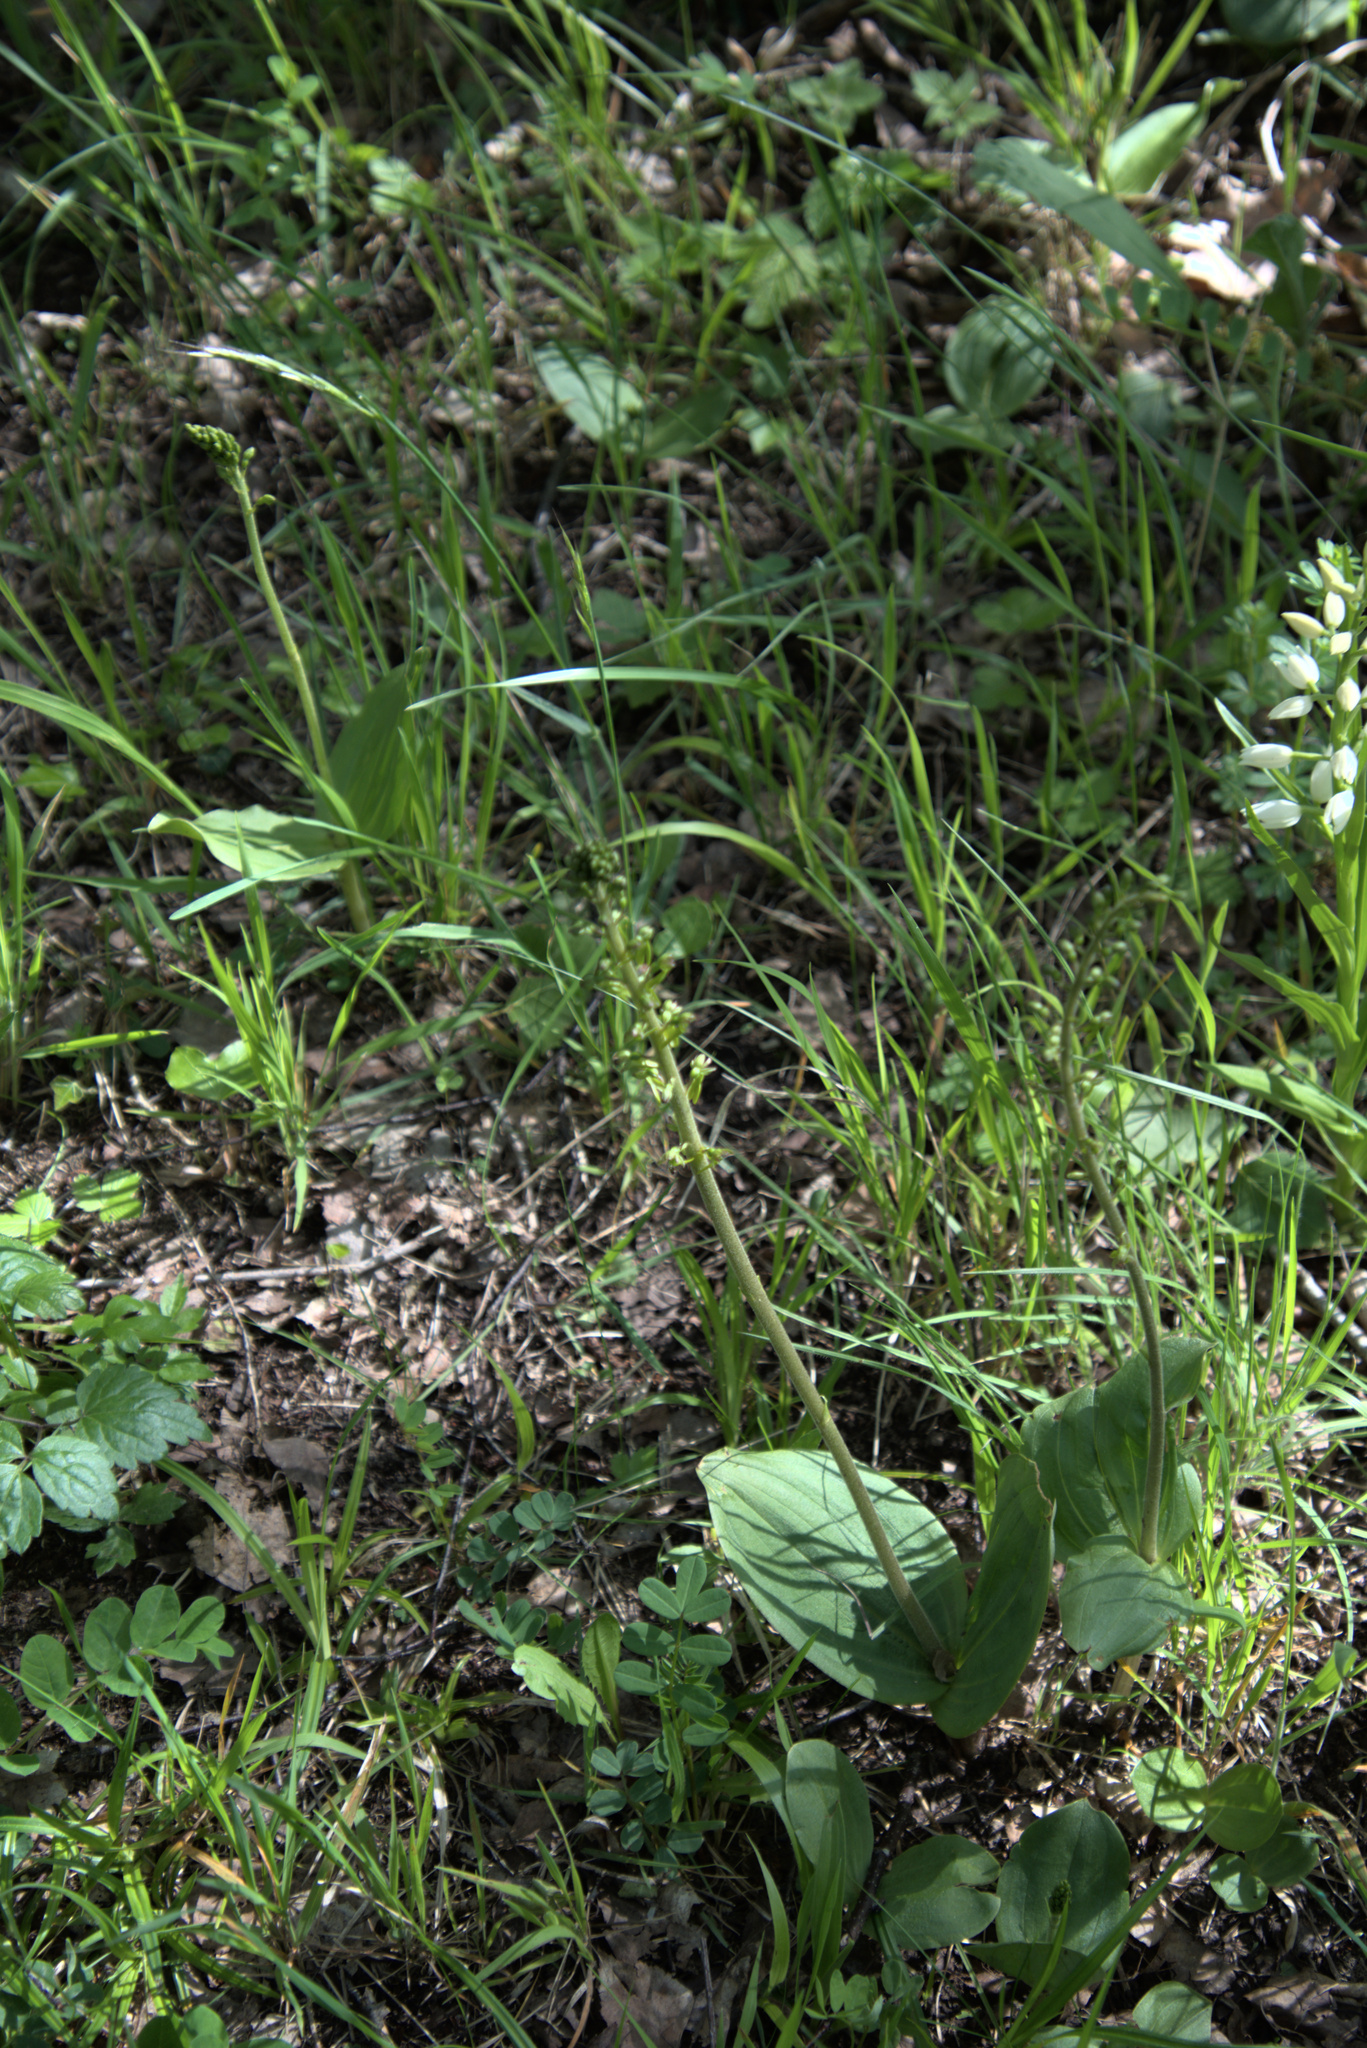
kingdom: Plantae
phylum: Tracheophyta
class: Liliopsida
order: Asparagales
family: Orchidaceae
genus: Neottia
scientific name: Neottia ovata
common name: Common twayblade
